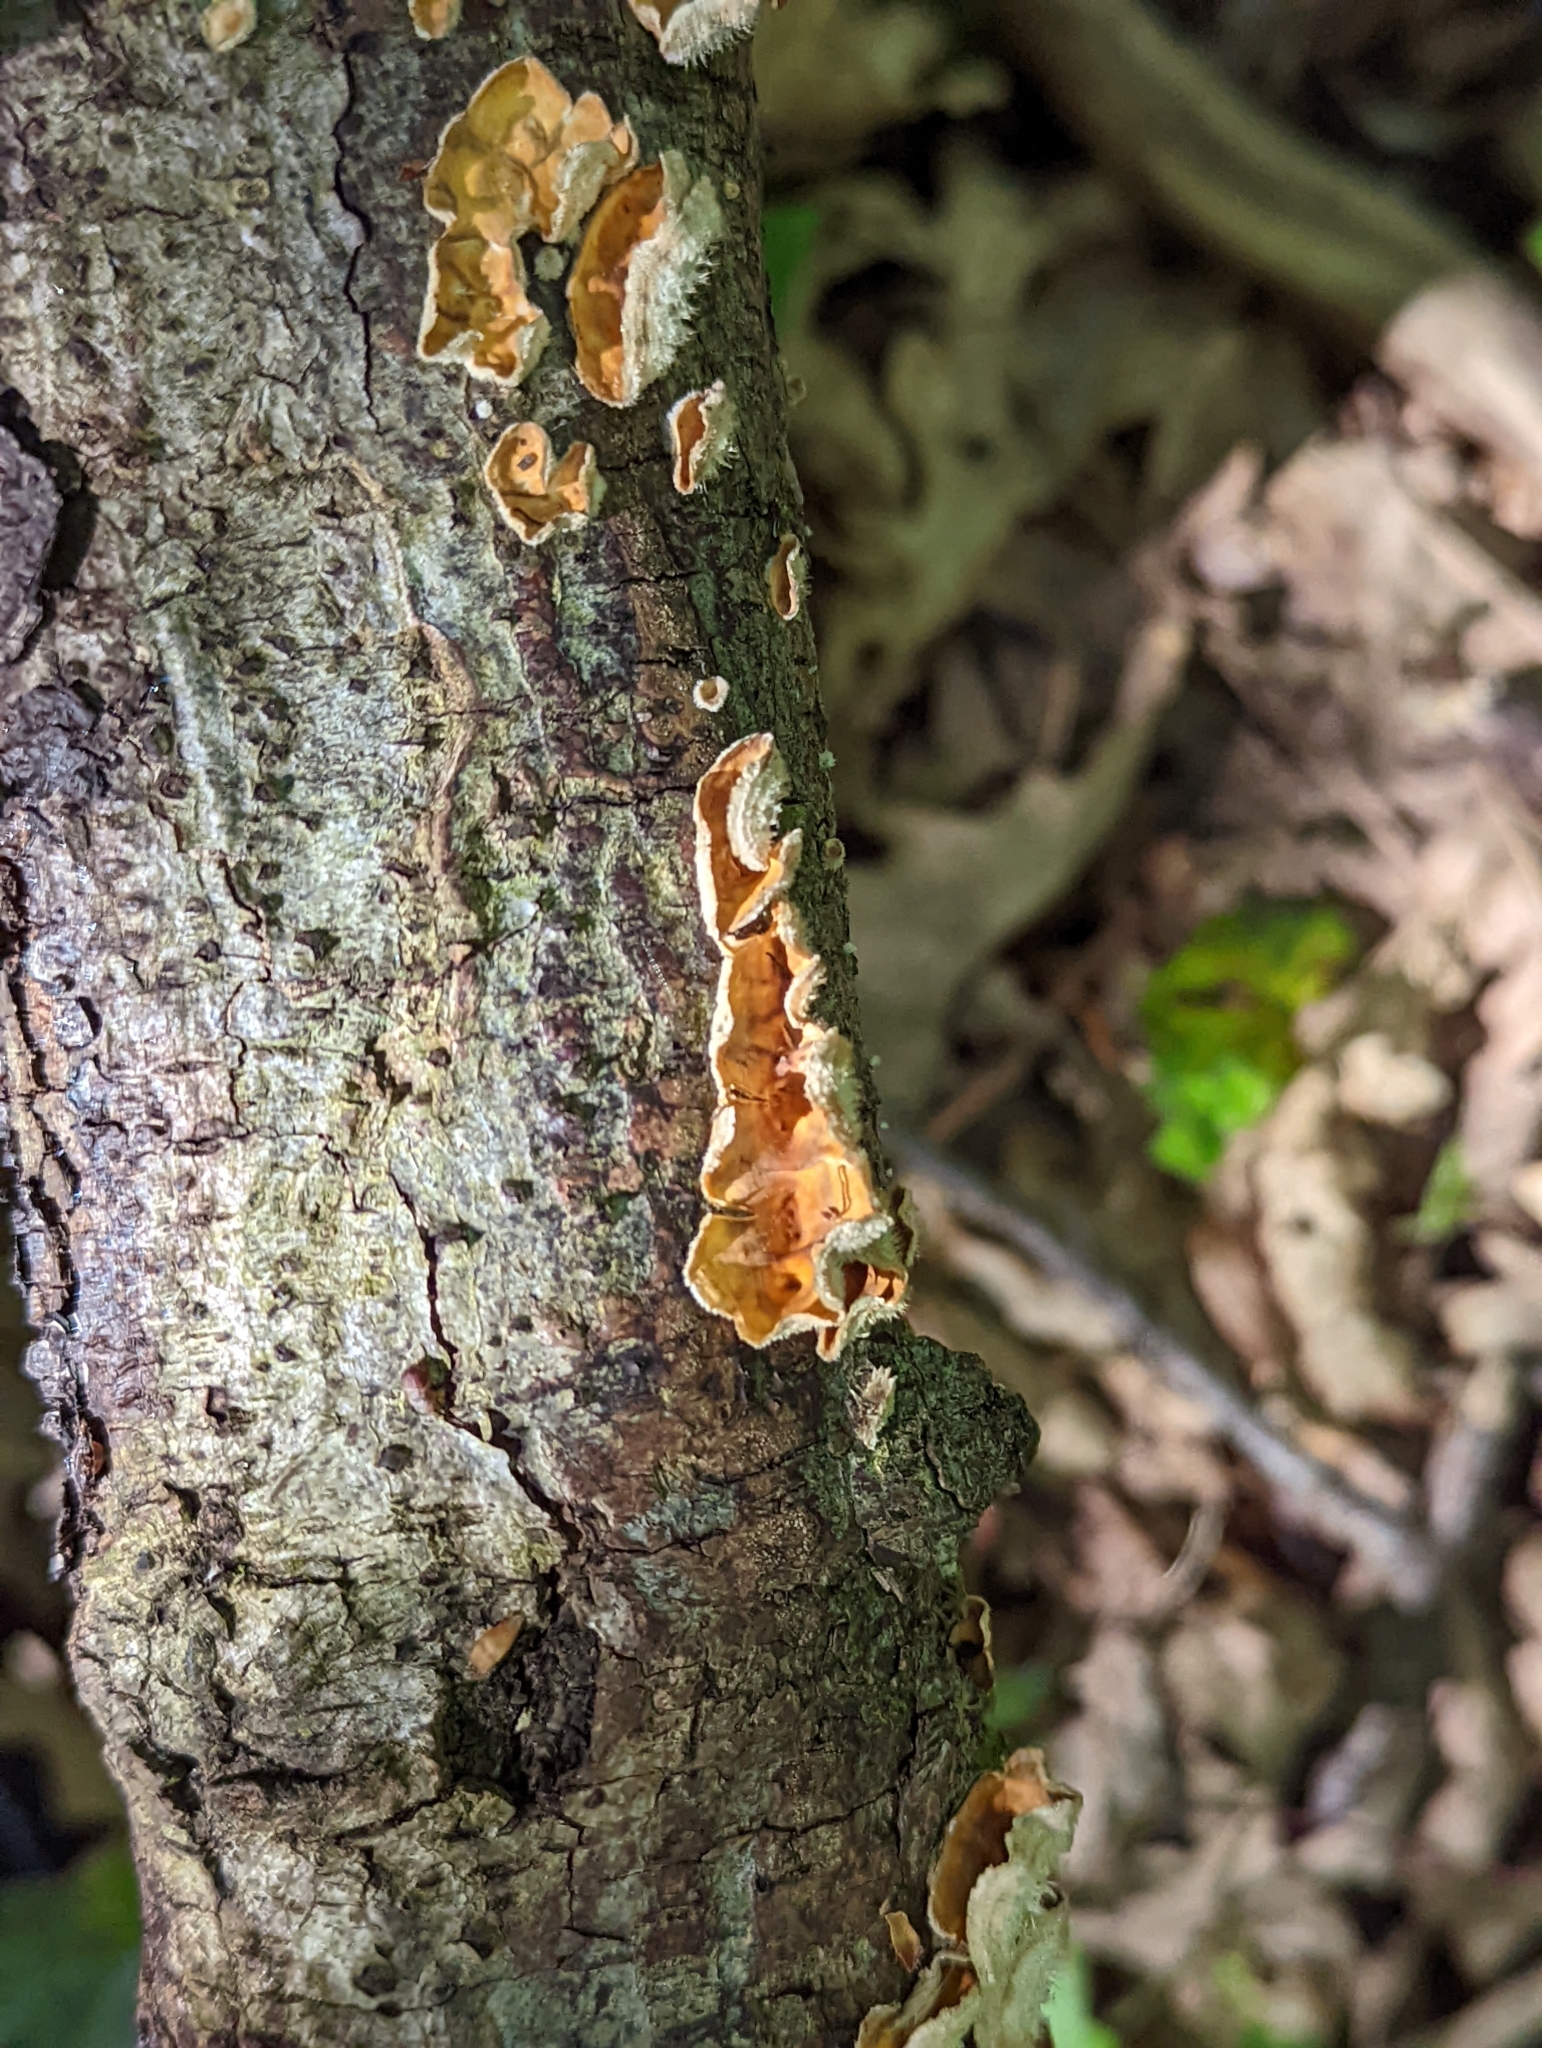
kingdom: Fungi
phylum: Basidiomycota
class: Agaricomycetes
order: Russulales
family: Stereaceae
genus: Stereum
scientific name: Stereum hirsutum
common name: Hairy curtain crust
